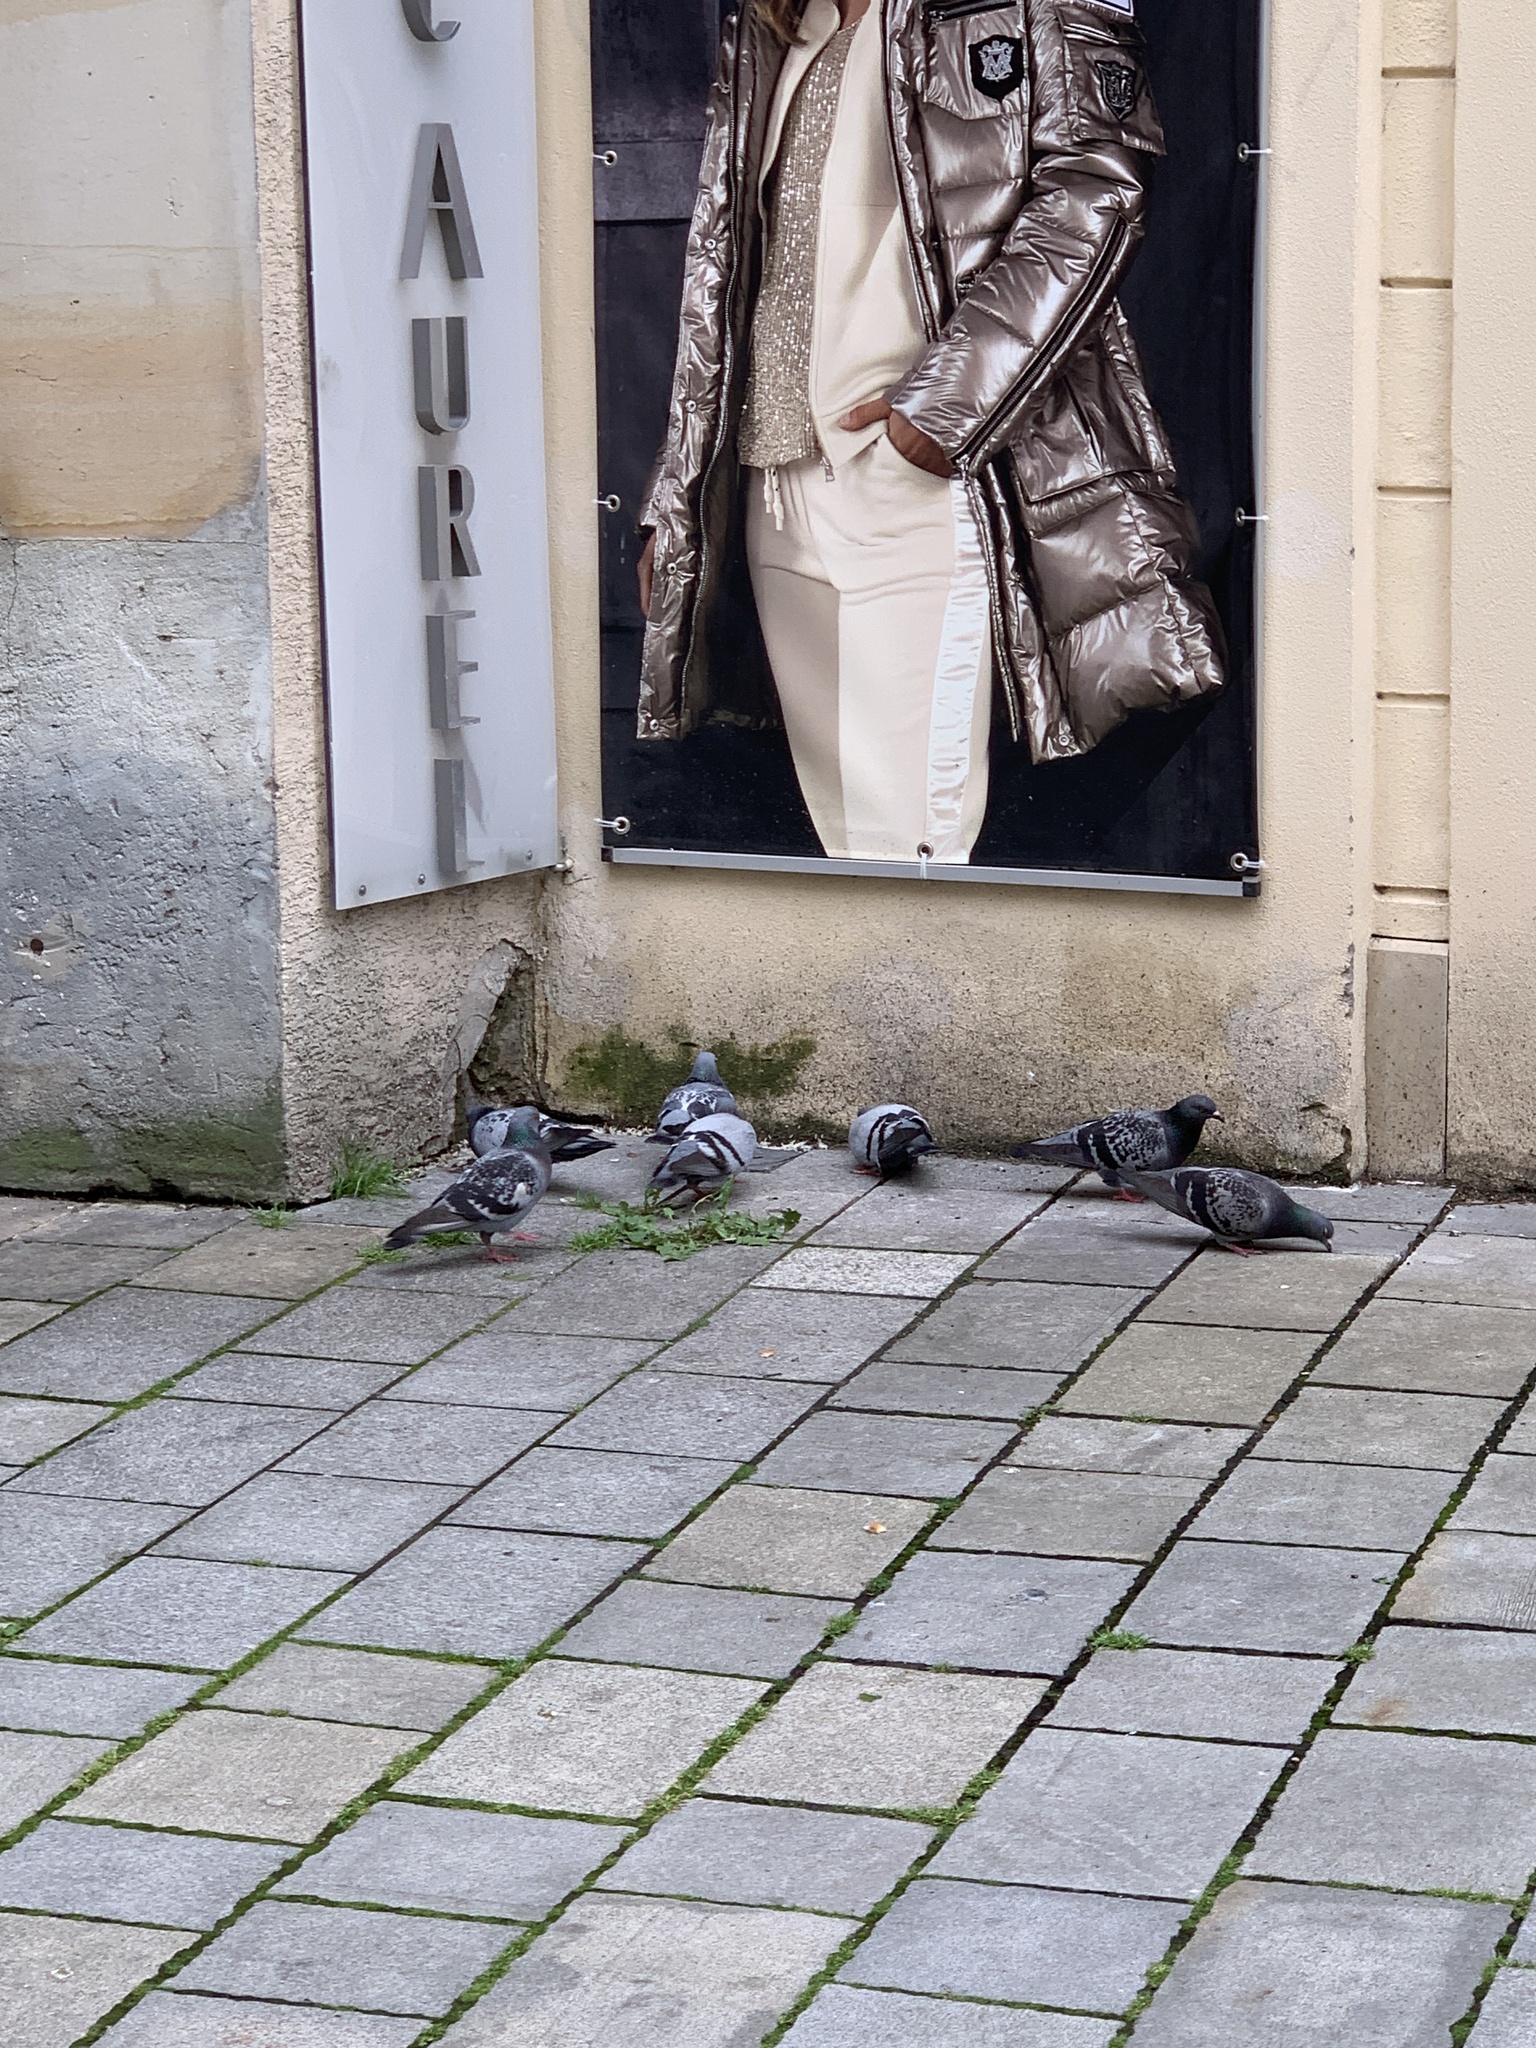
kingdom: Animalia
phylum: Chordata
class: Aves
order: Columbiformes
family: Columbidae
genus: Columba
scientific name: Columba livia
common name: Rock pigeon
